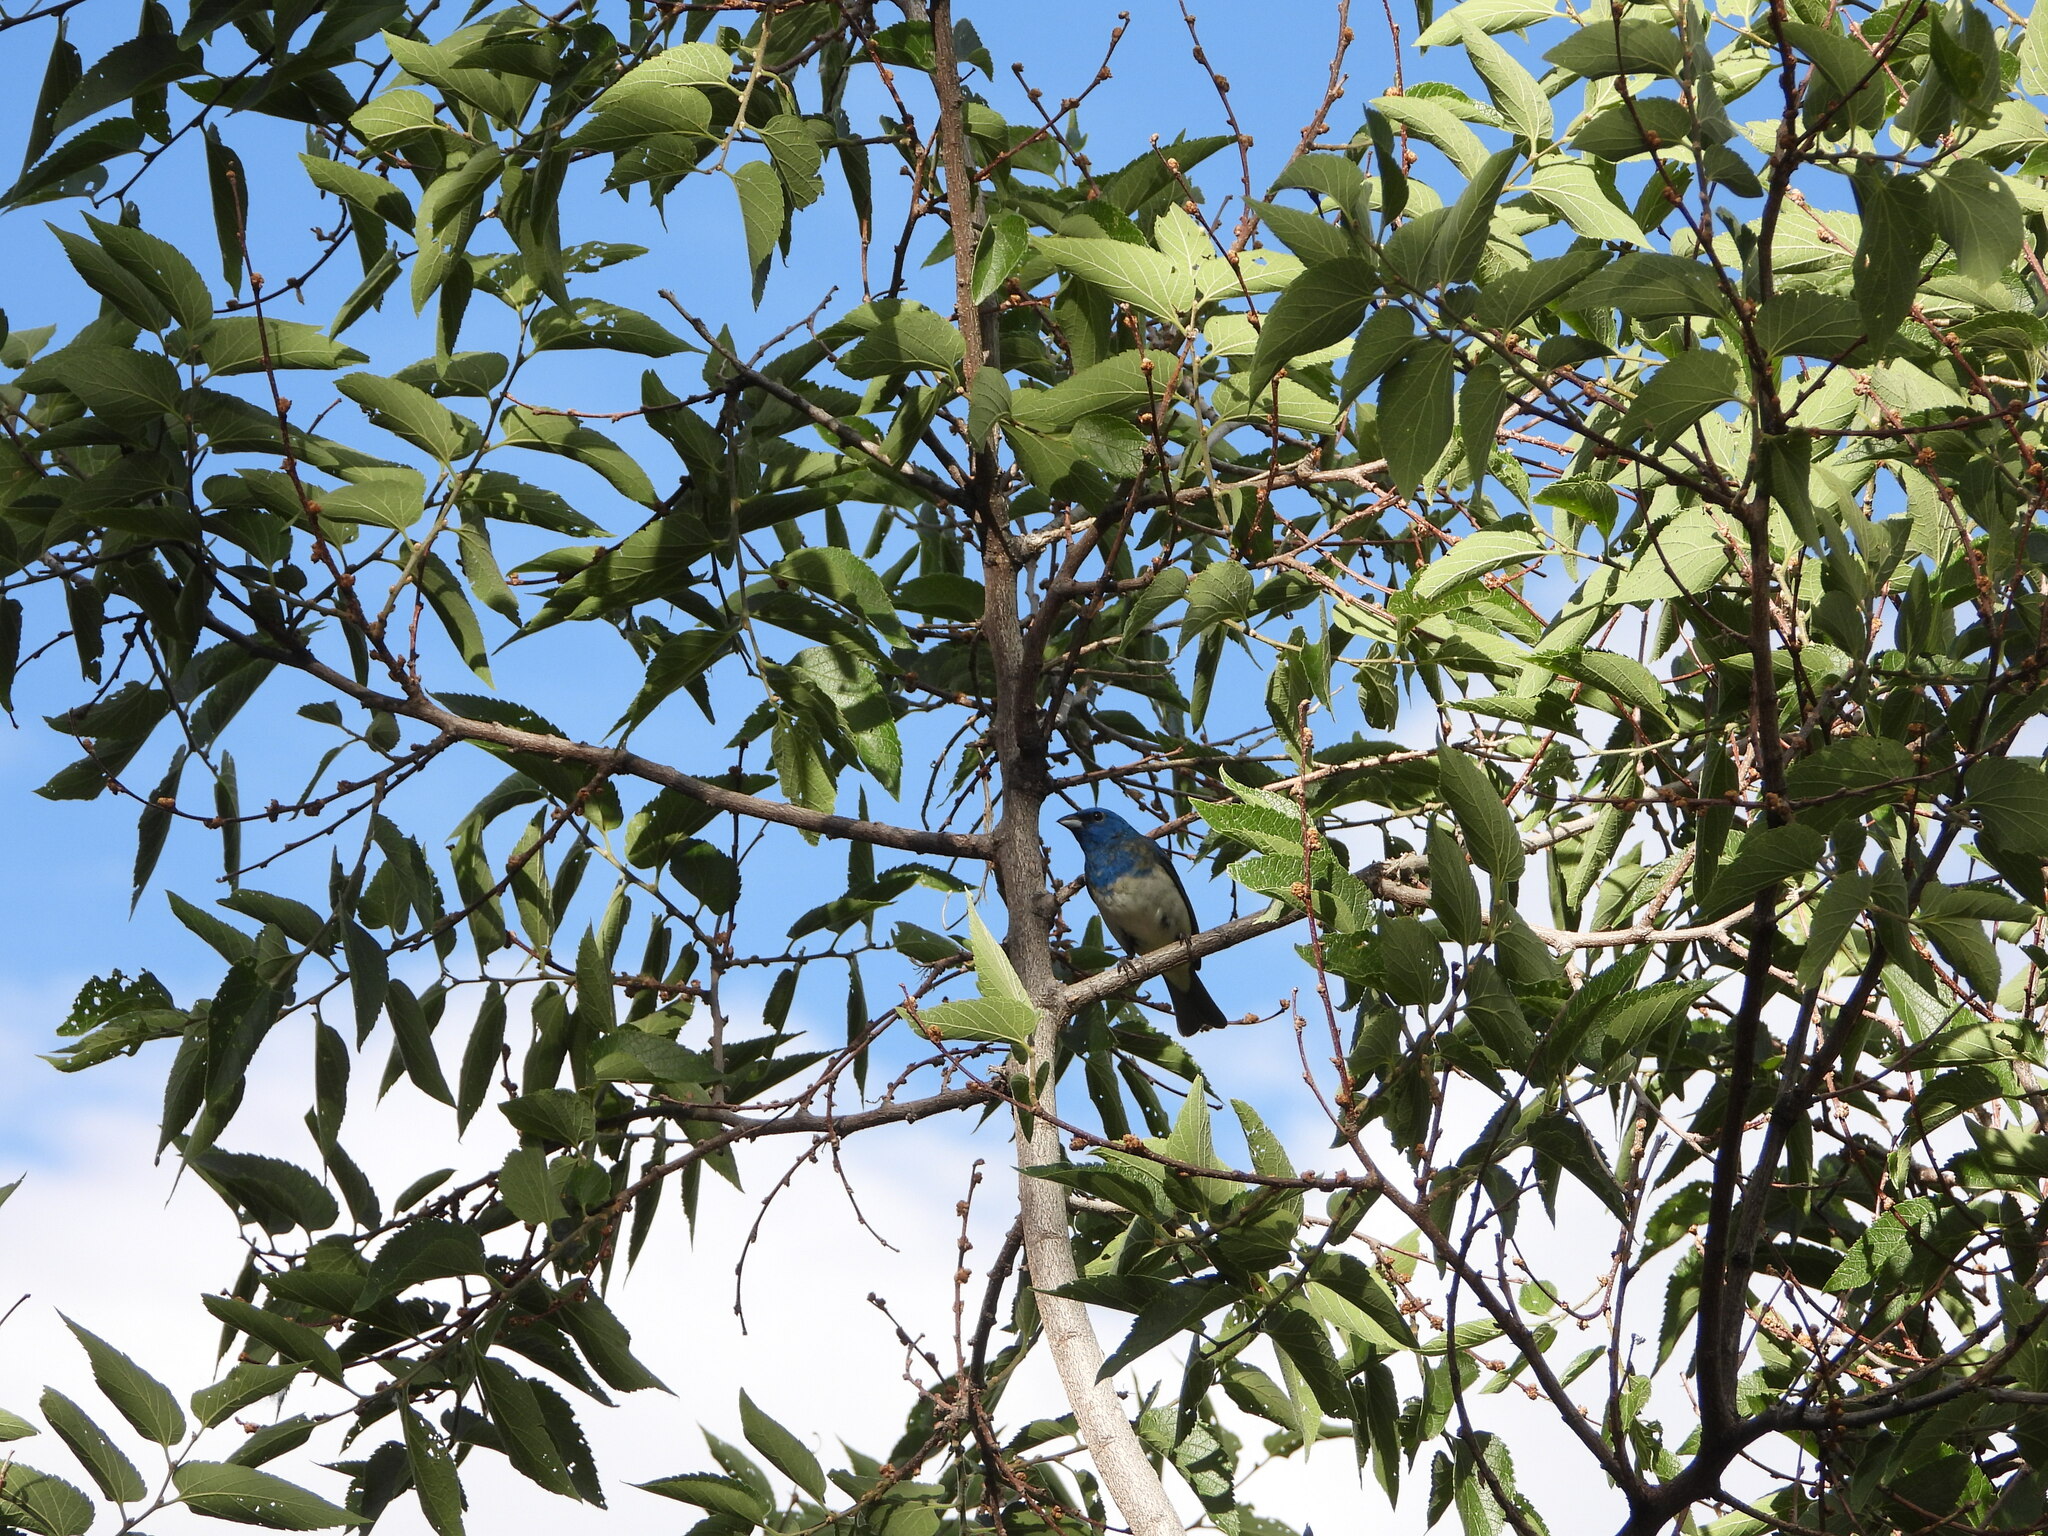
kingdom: Animalia
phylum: Chordata
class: Aves
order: Passeriformes
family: Cardinalidae
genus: Passerina
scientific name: Passerina
